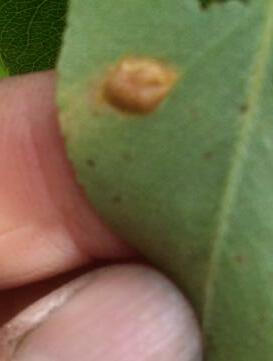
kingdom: Fungi
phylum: Basidiomycota
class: Pucciniomycetes
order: Pucciniales
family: Gymnosporangiaceae
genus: Gymnosporangium
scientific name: Gymnosporangium sabinae
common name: Pear trellis rust fungus
